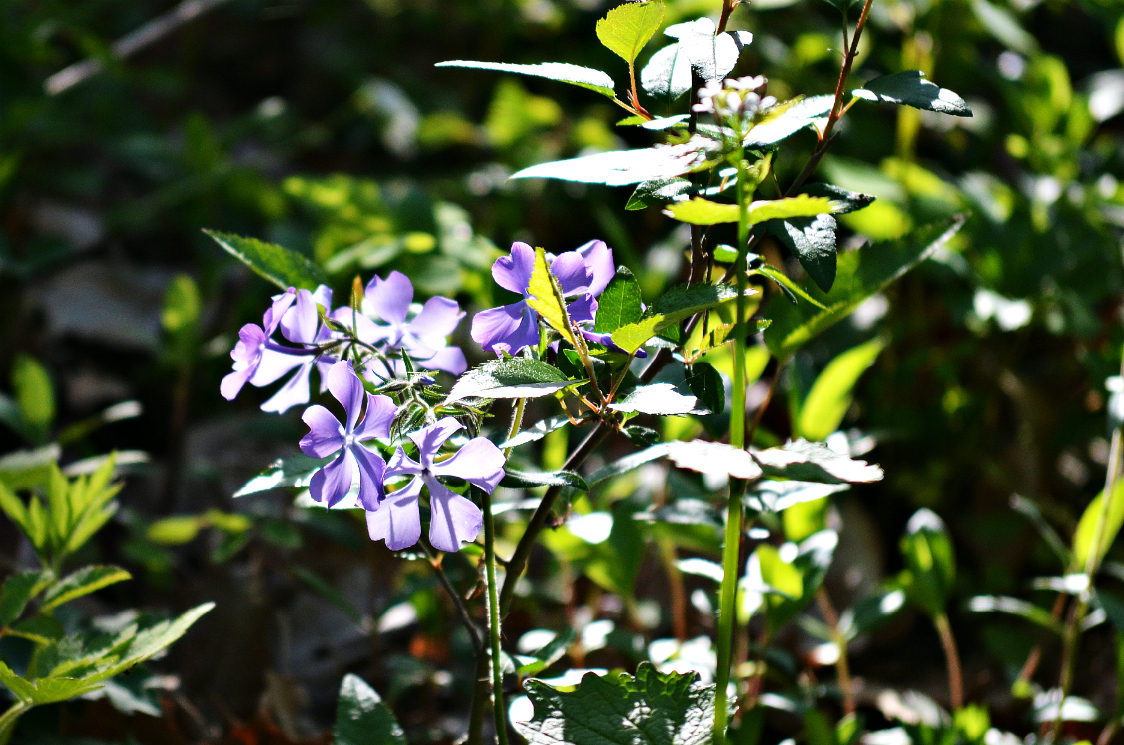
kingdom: Plantae
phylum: Tracheophyta
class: Magnoliopsida
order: Ericales
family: Polemoniaceae
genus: Phlox
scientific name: Phlox divaricata
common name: Blue phlox
